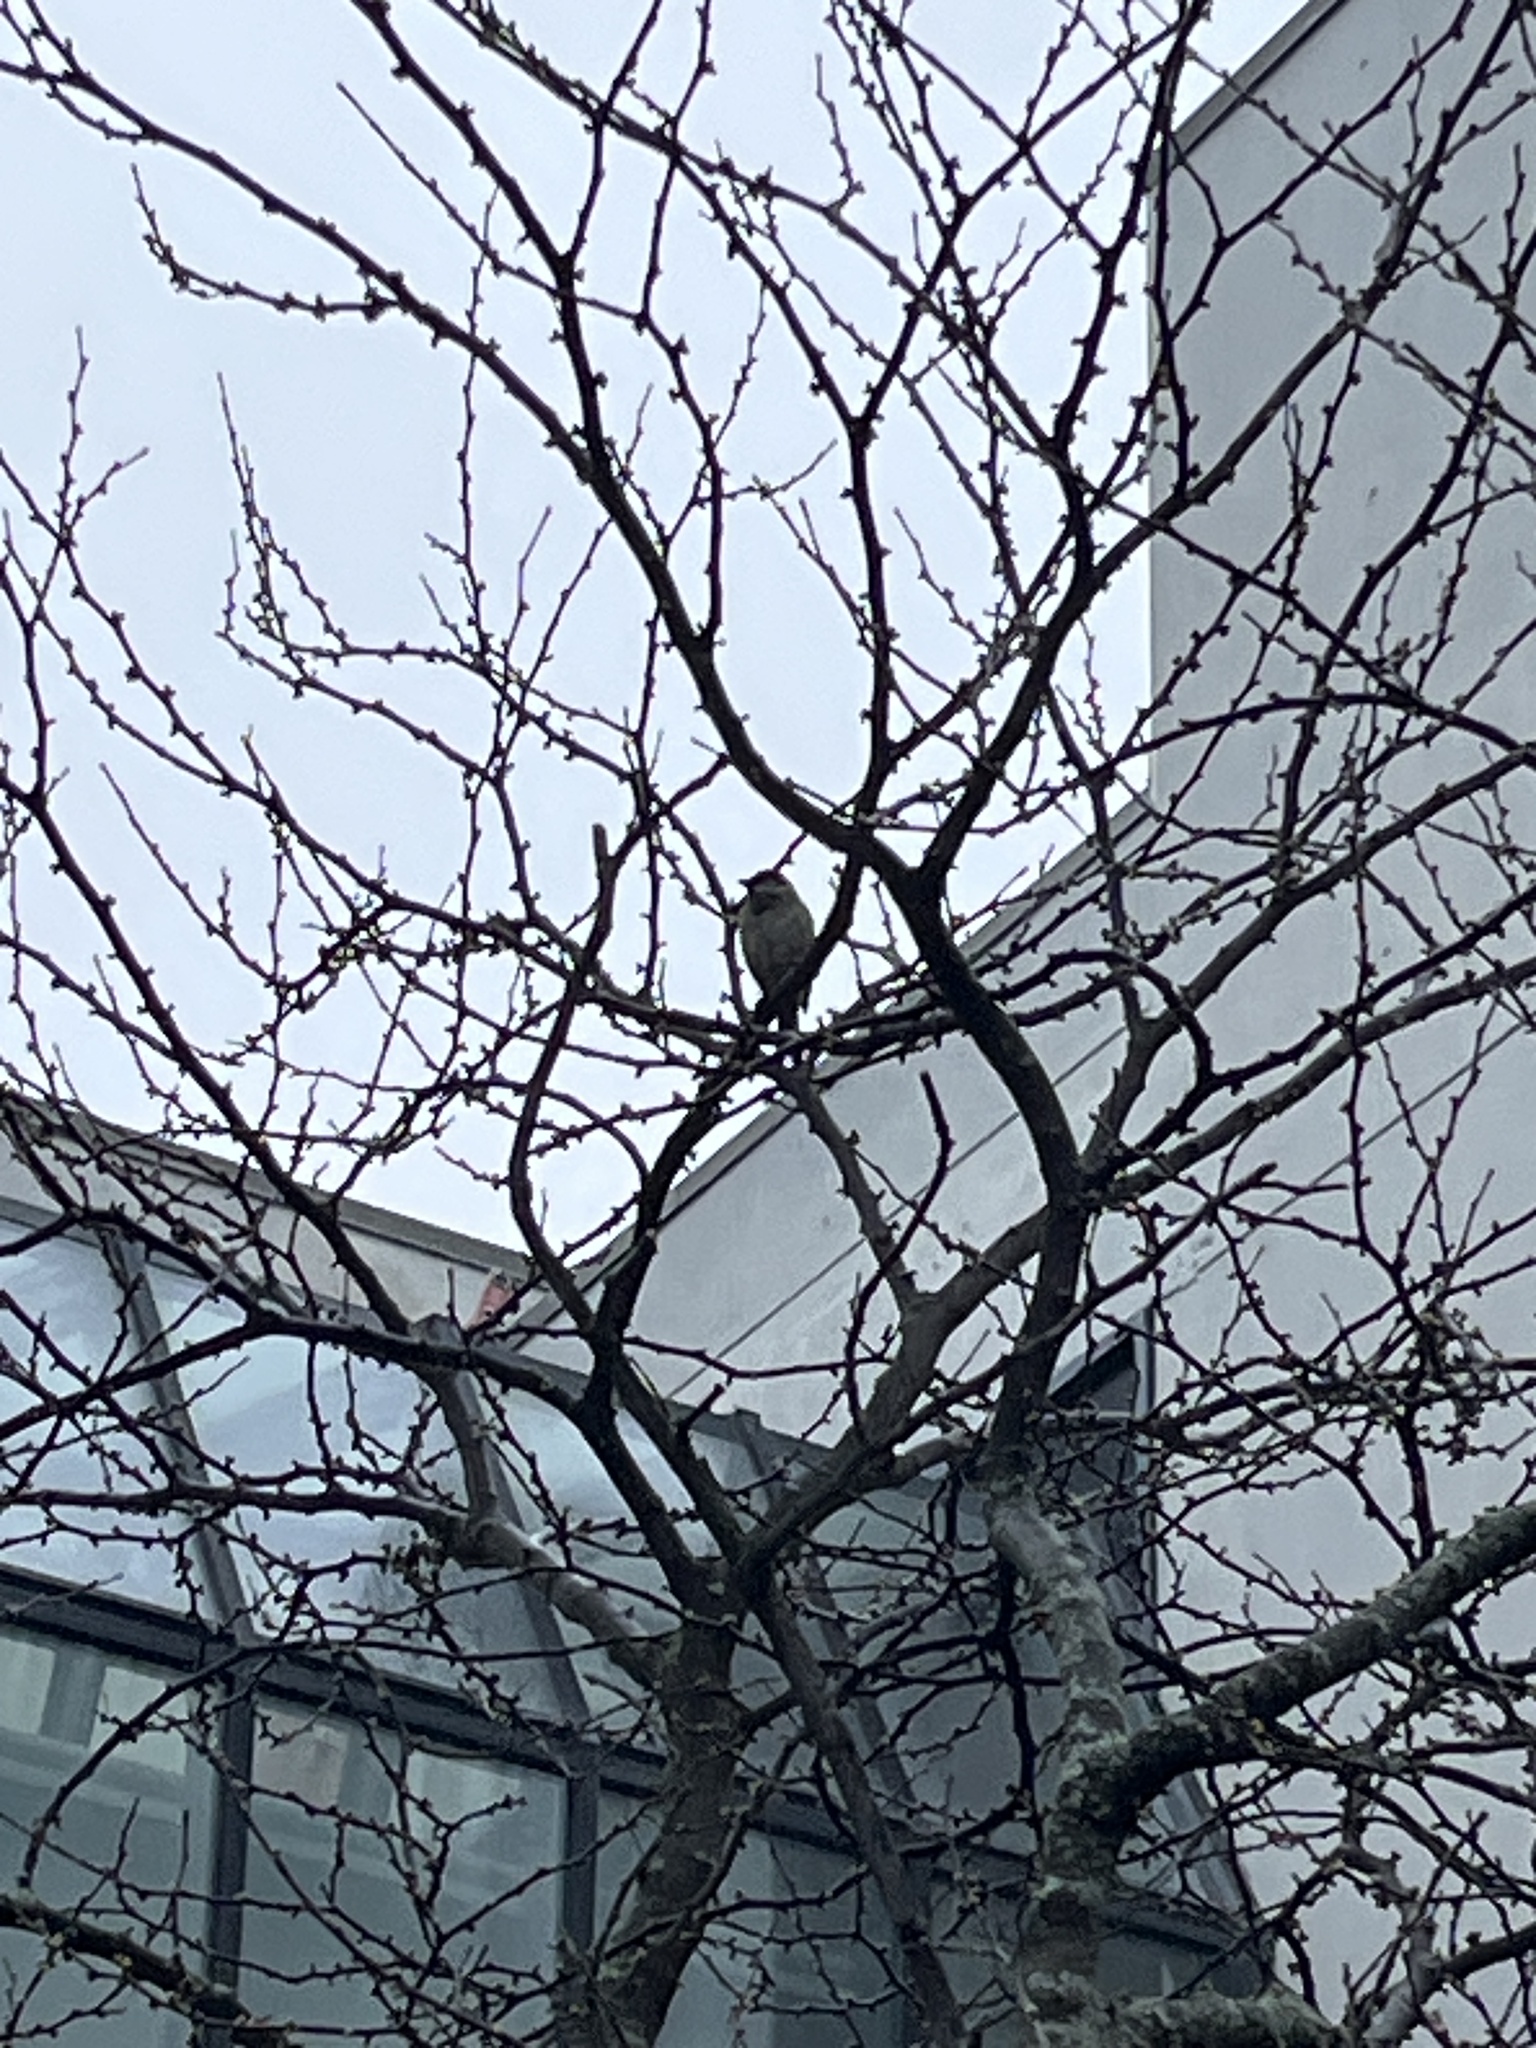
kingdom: Animalia
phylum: Chordata
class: Aves
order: Passeriformes
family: Passeridae
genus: Passer
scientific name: Passer domesticus
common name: House sparrow
